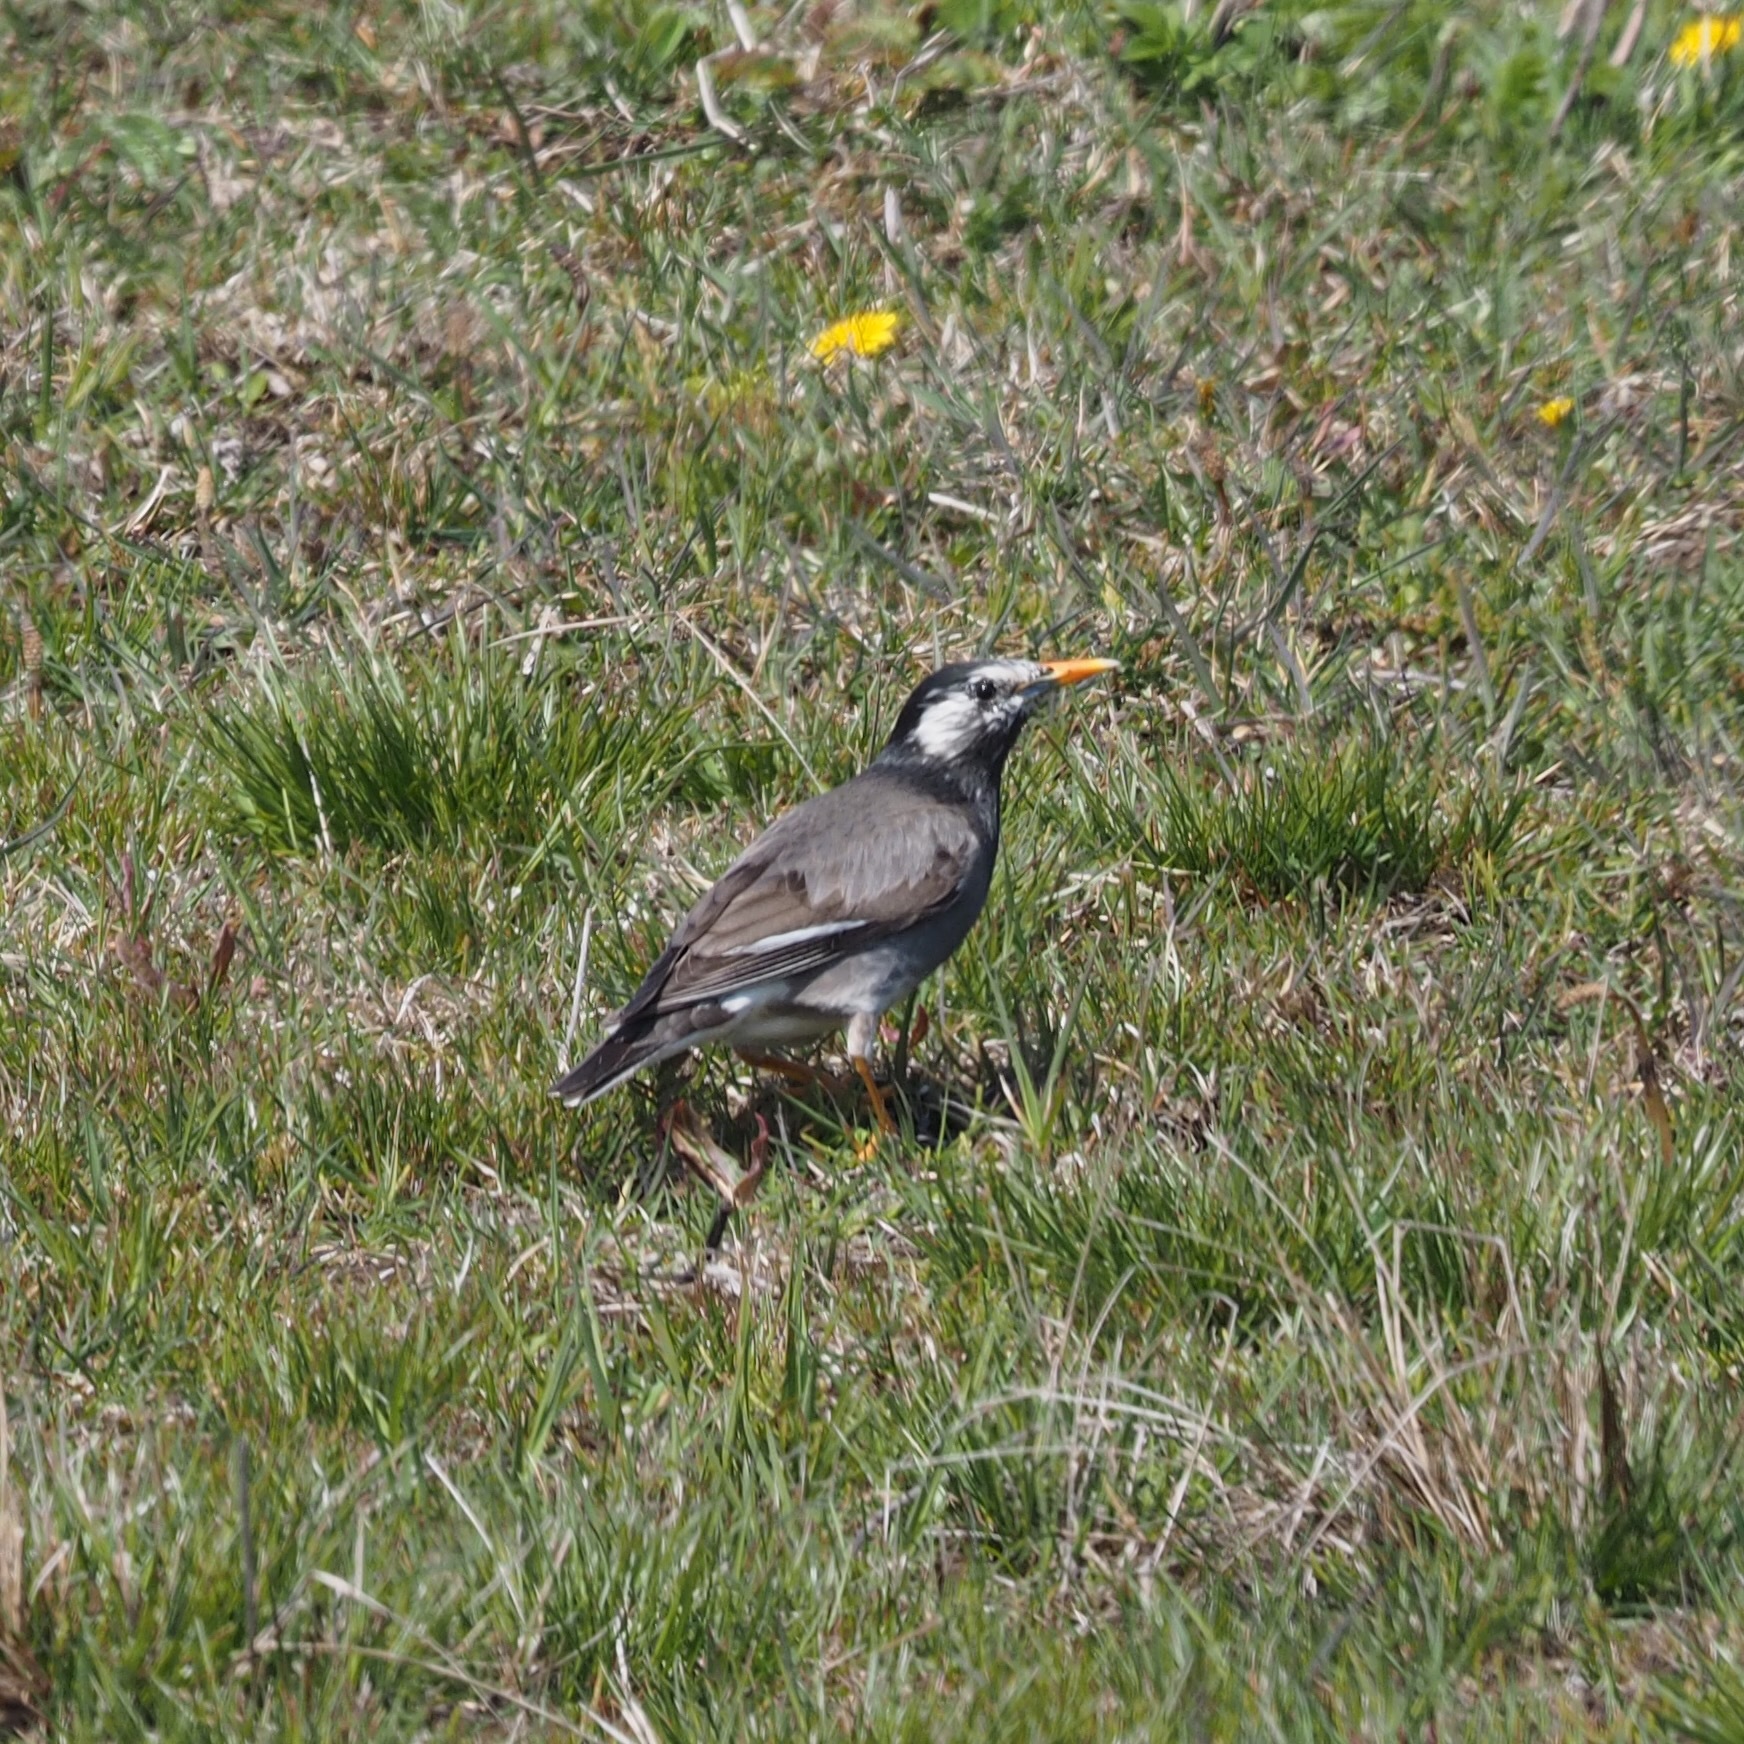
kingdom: Animalia
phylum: Chordata
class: Aves
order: Passeriformes
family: Sturnidae
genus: Spodiopsar
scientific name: Spodiopsar cineraceus
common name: White-cheeked starling
